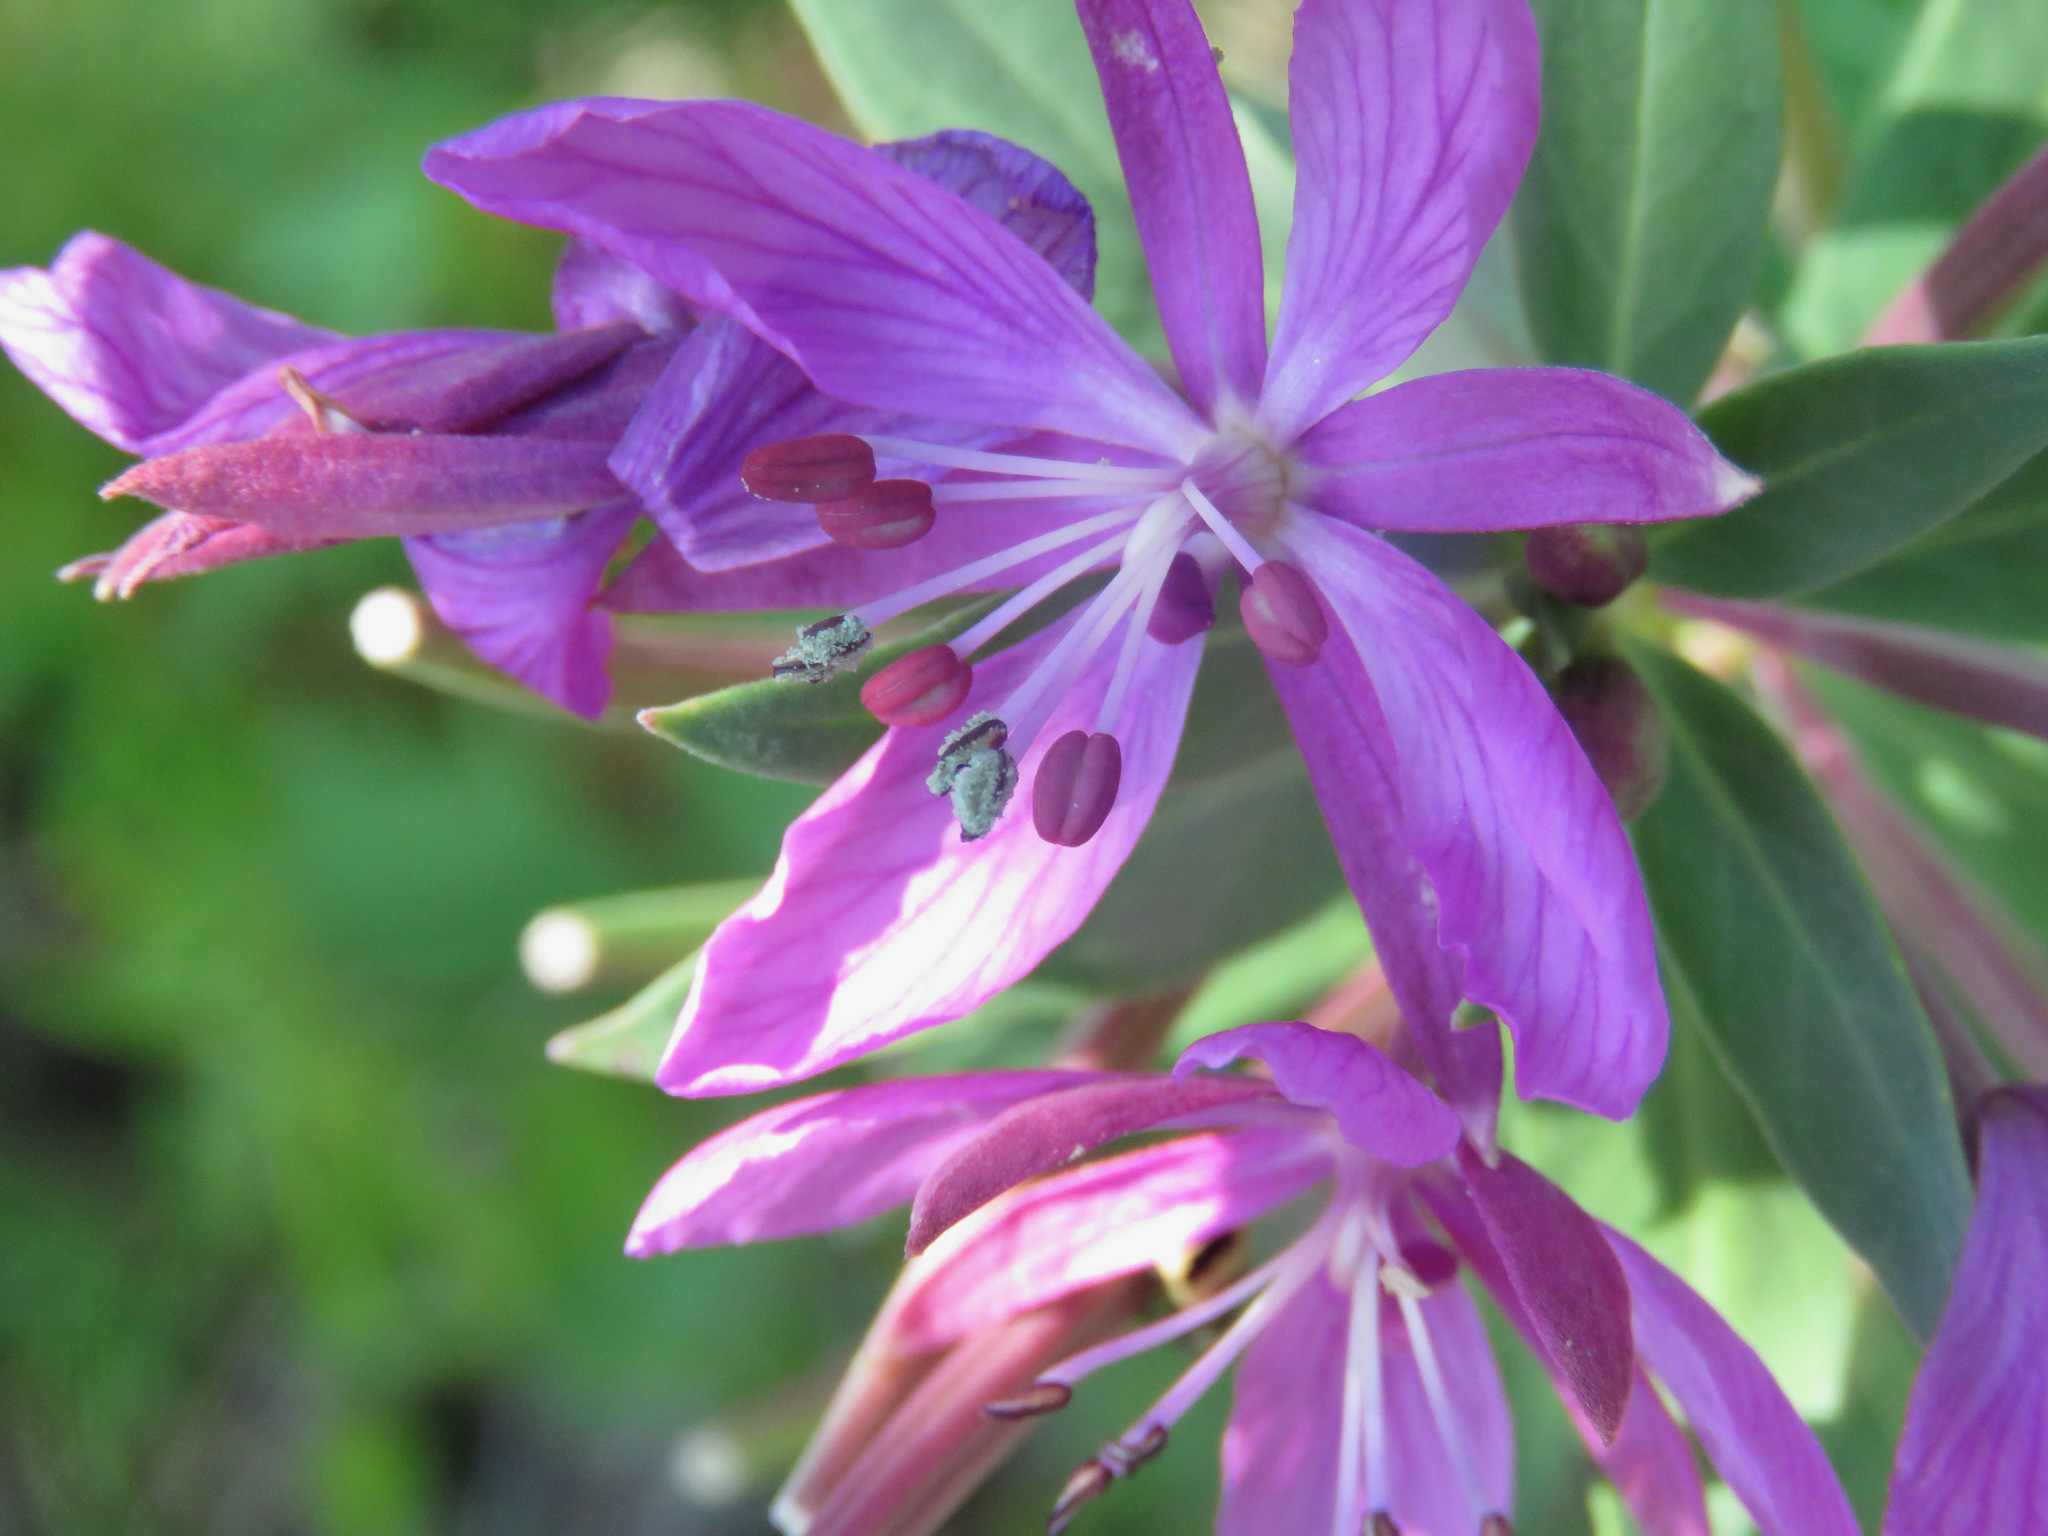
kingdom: Plantae
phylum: Tracheophyta
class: Magnoliopsida
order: Myrtales
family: Onagraceae
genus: Chamaenerion
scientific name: Chamaenerion latifolium
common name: Dwarf fireweed
